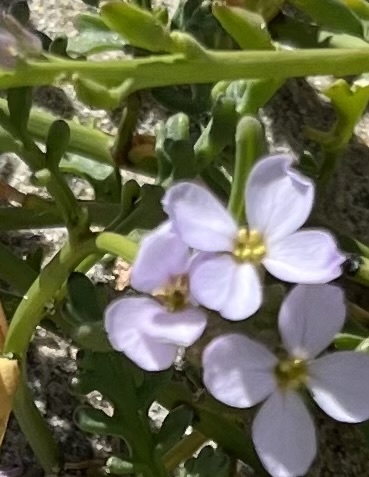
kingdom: Plantae
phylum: Tracheophyta
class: Magnoliopsida
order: Brassicales
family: Brassicaceae
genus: Cakile
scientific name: Cakile maritima
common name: Sea rocket
